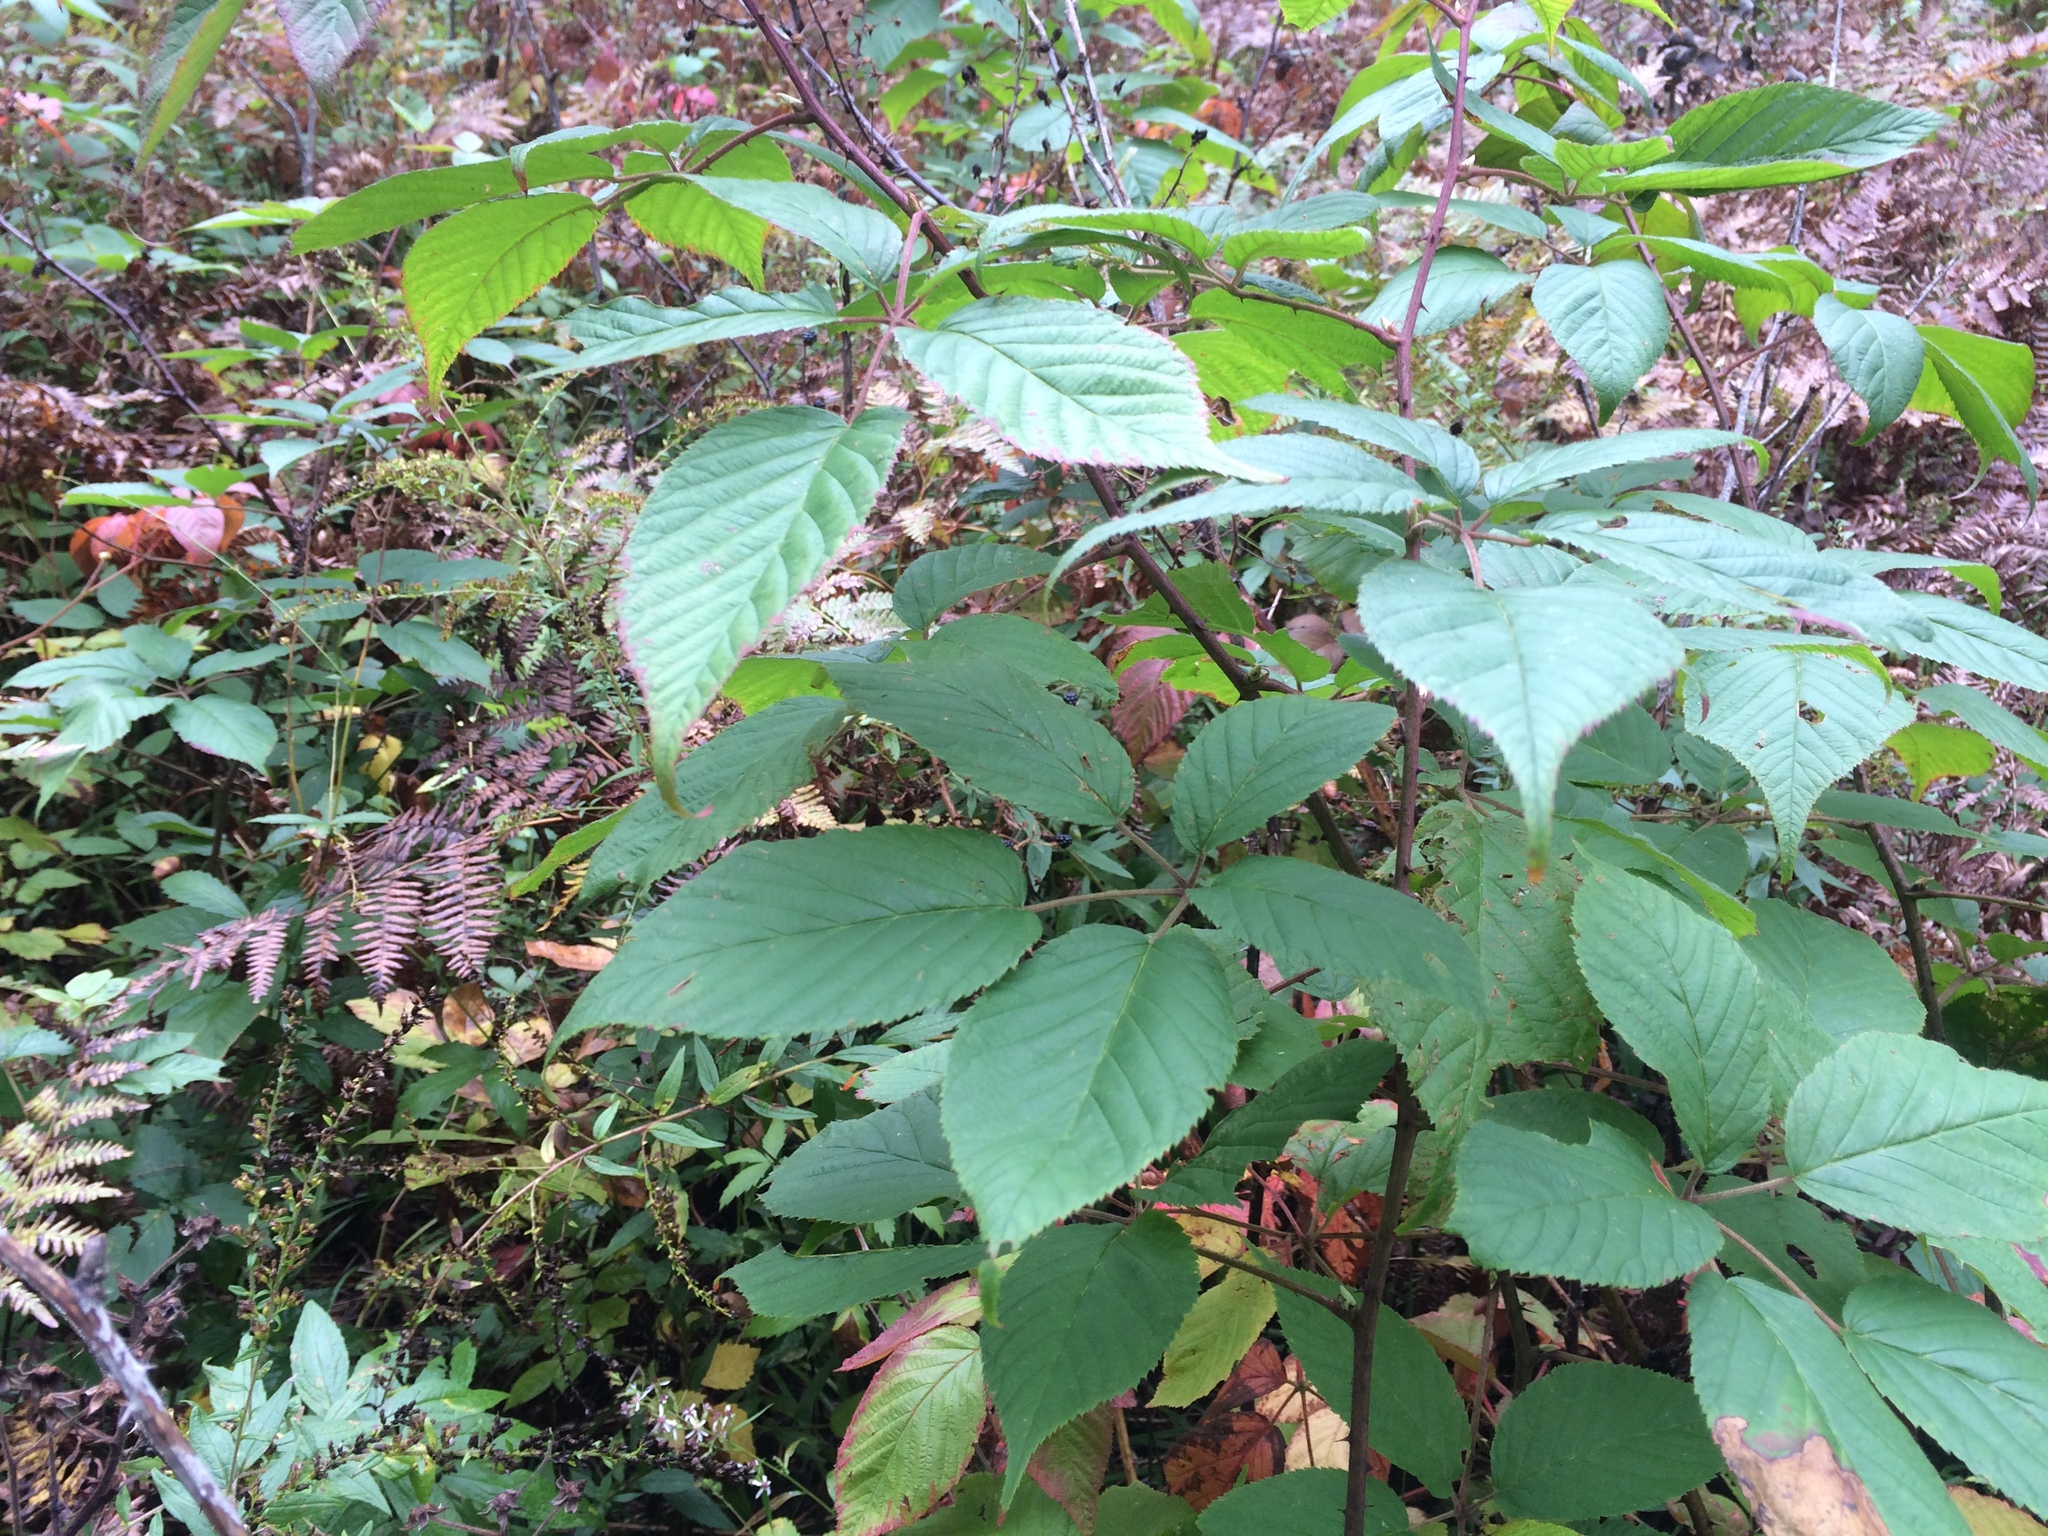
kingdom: Plantae
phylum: Tracheophyta
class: Magnoliopsida
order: Rosales
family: Rosaceae
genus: Rubus
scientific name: Rubus allegheniensis
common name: Allegheny blackberry
